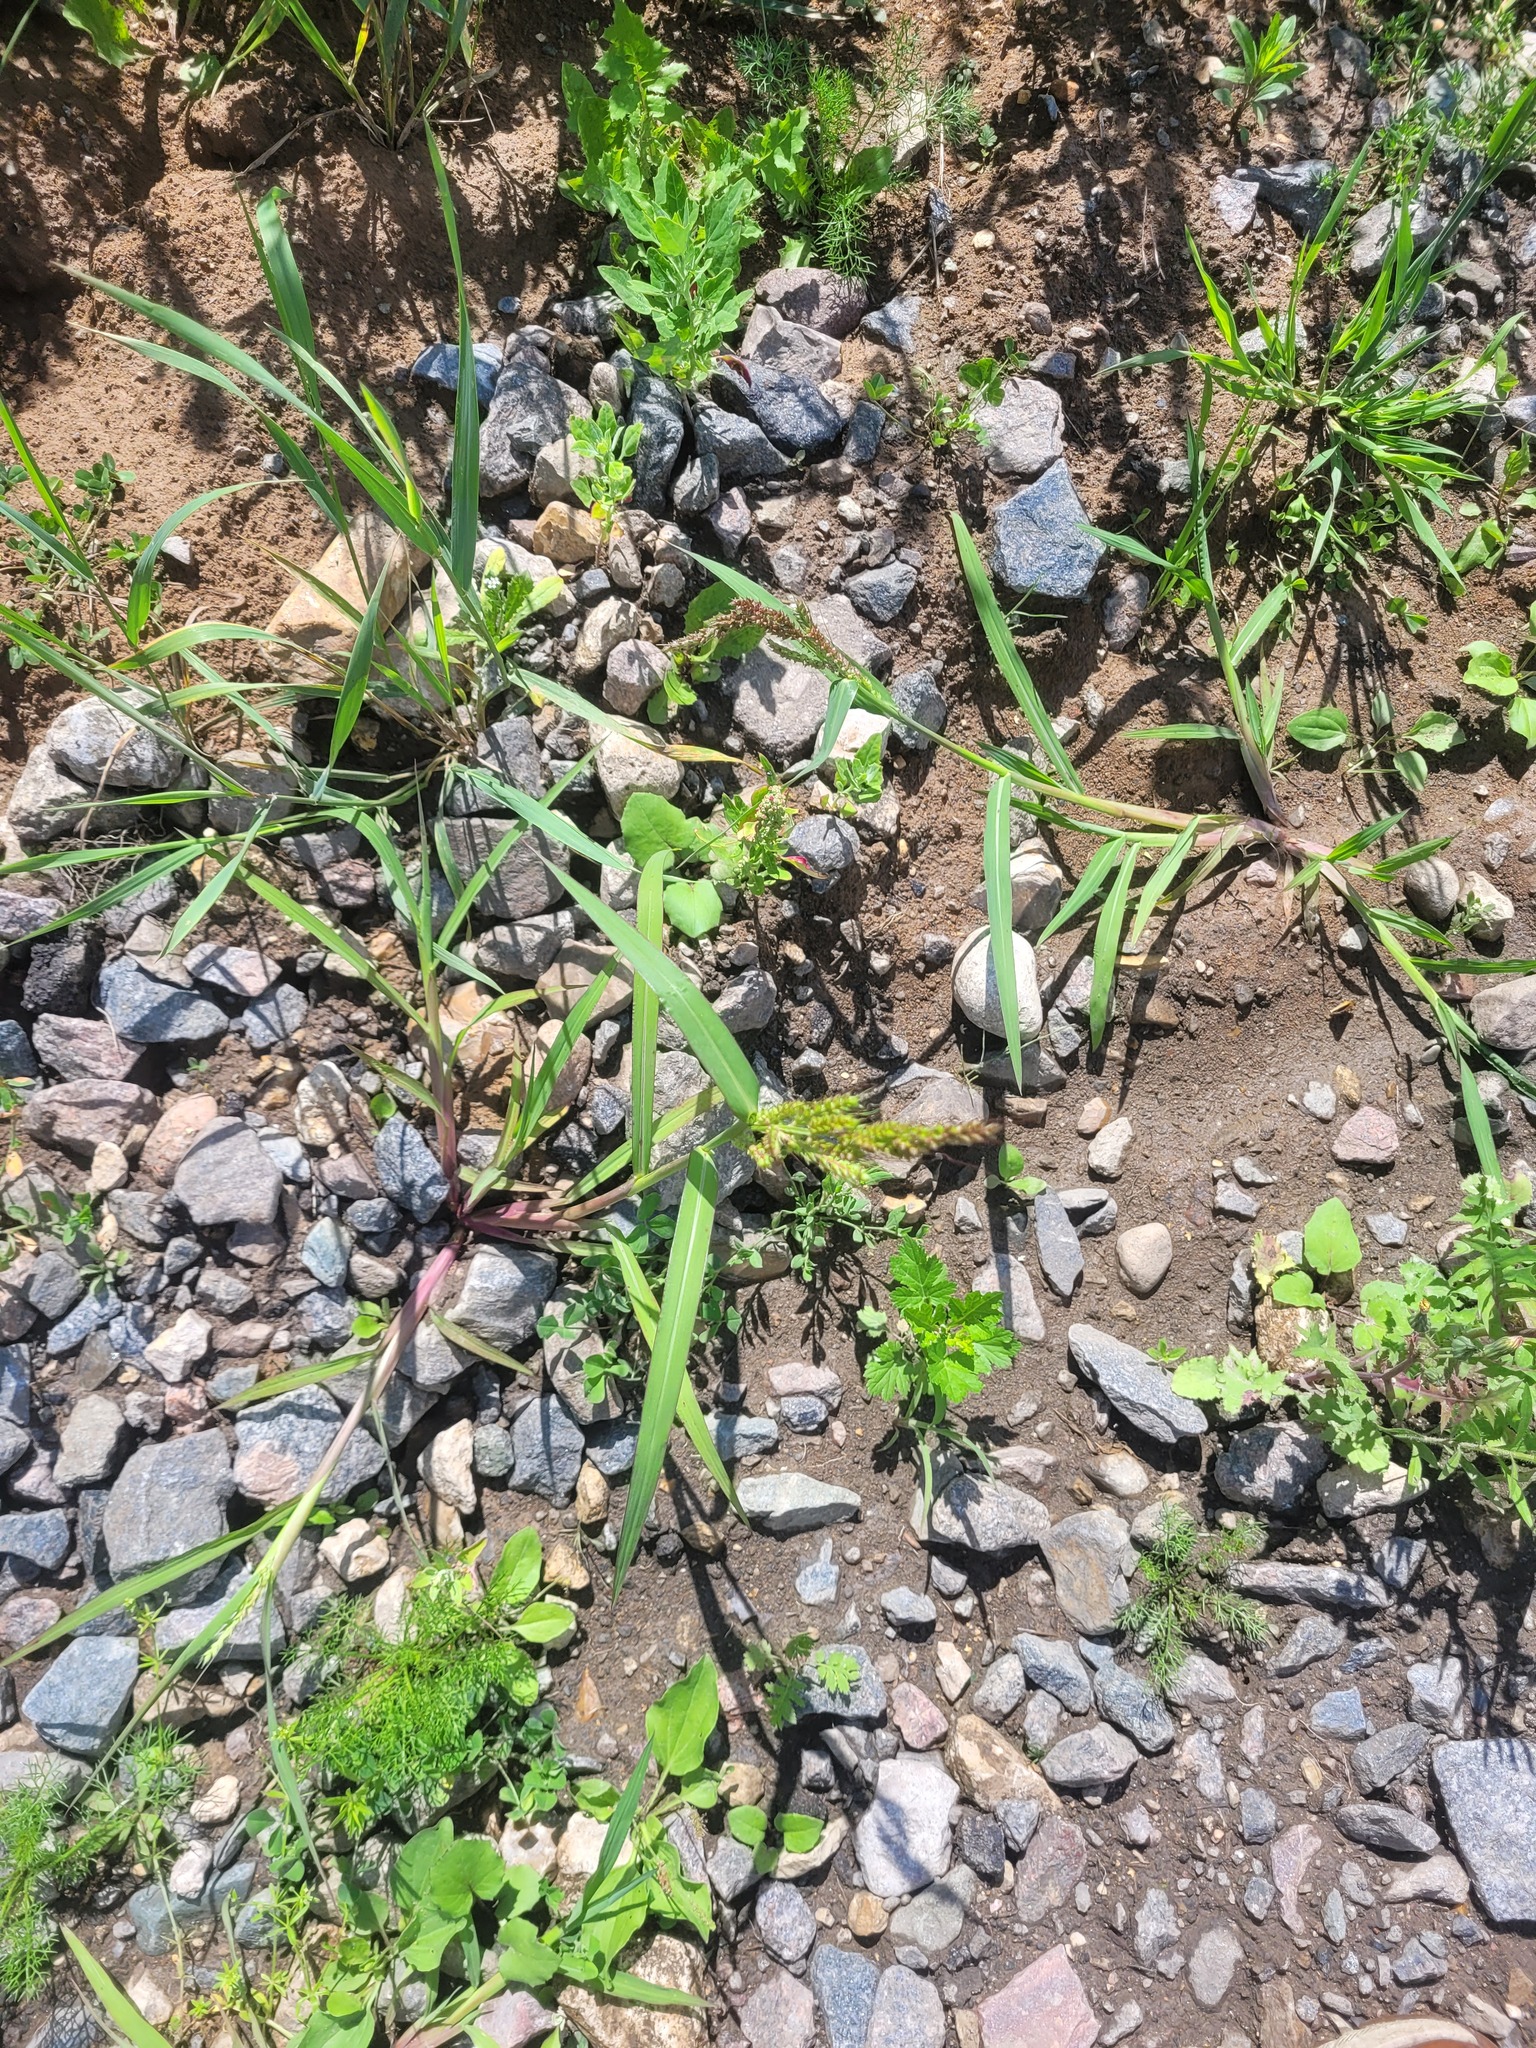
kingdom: Plantae
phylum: Tracheophyta
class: Liliopsida
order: Poales
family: Poaceae
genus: Echinochloa
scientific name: Echinochloa crus-galli
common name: Cockspur
